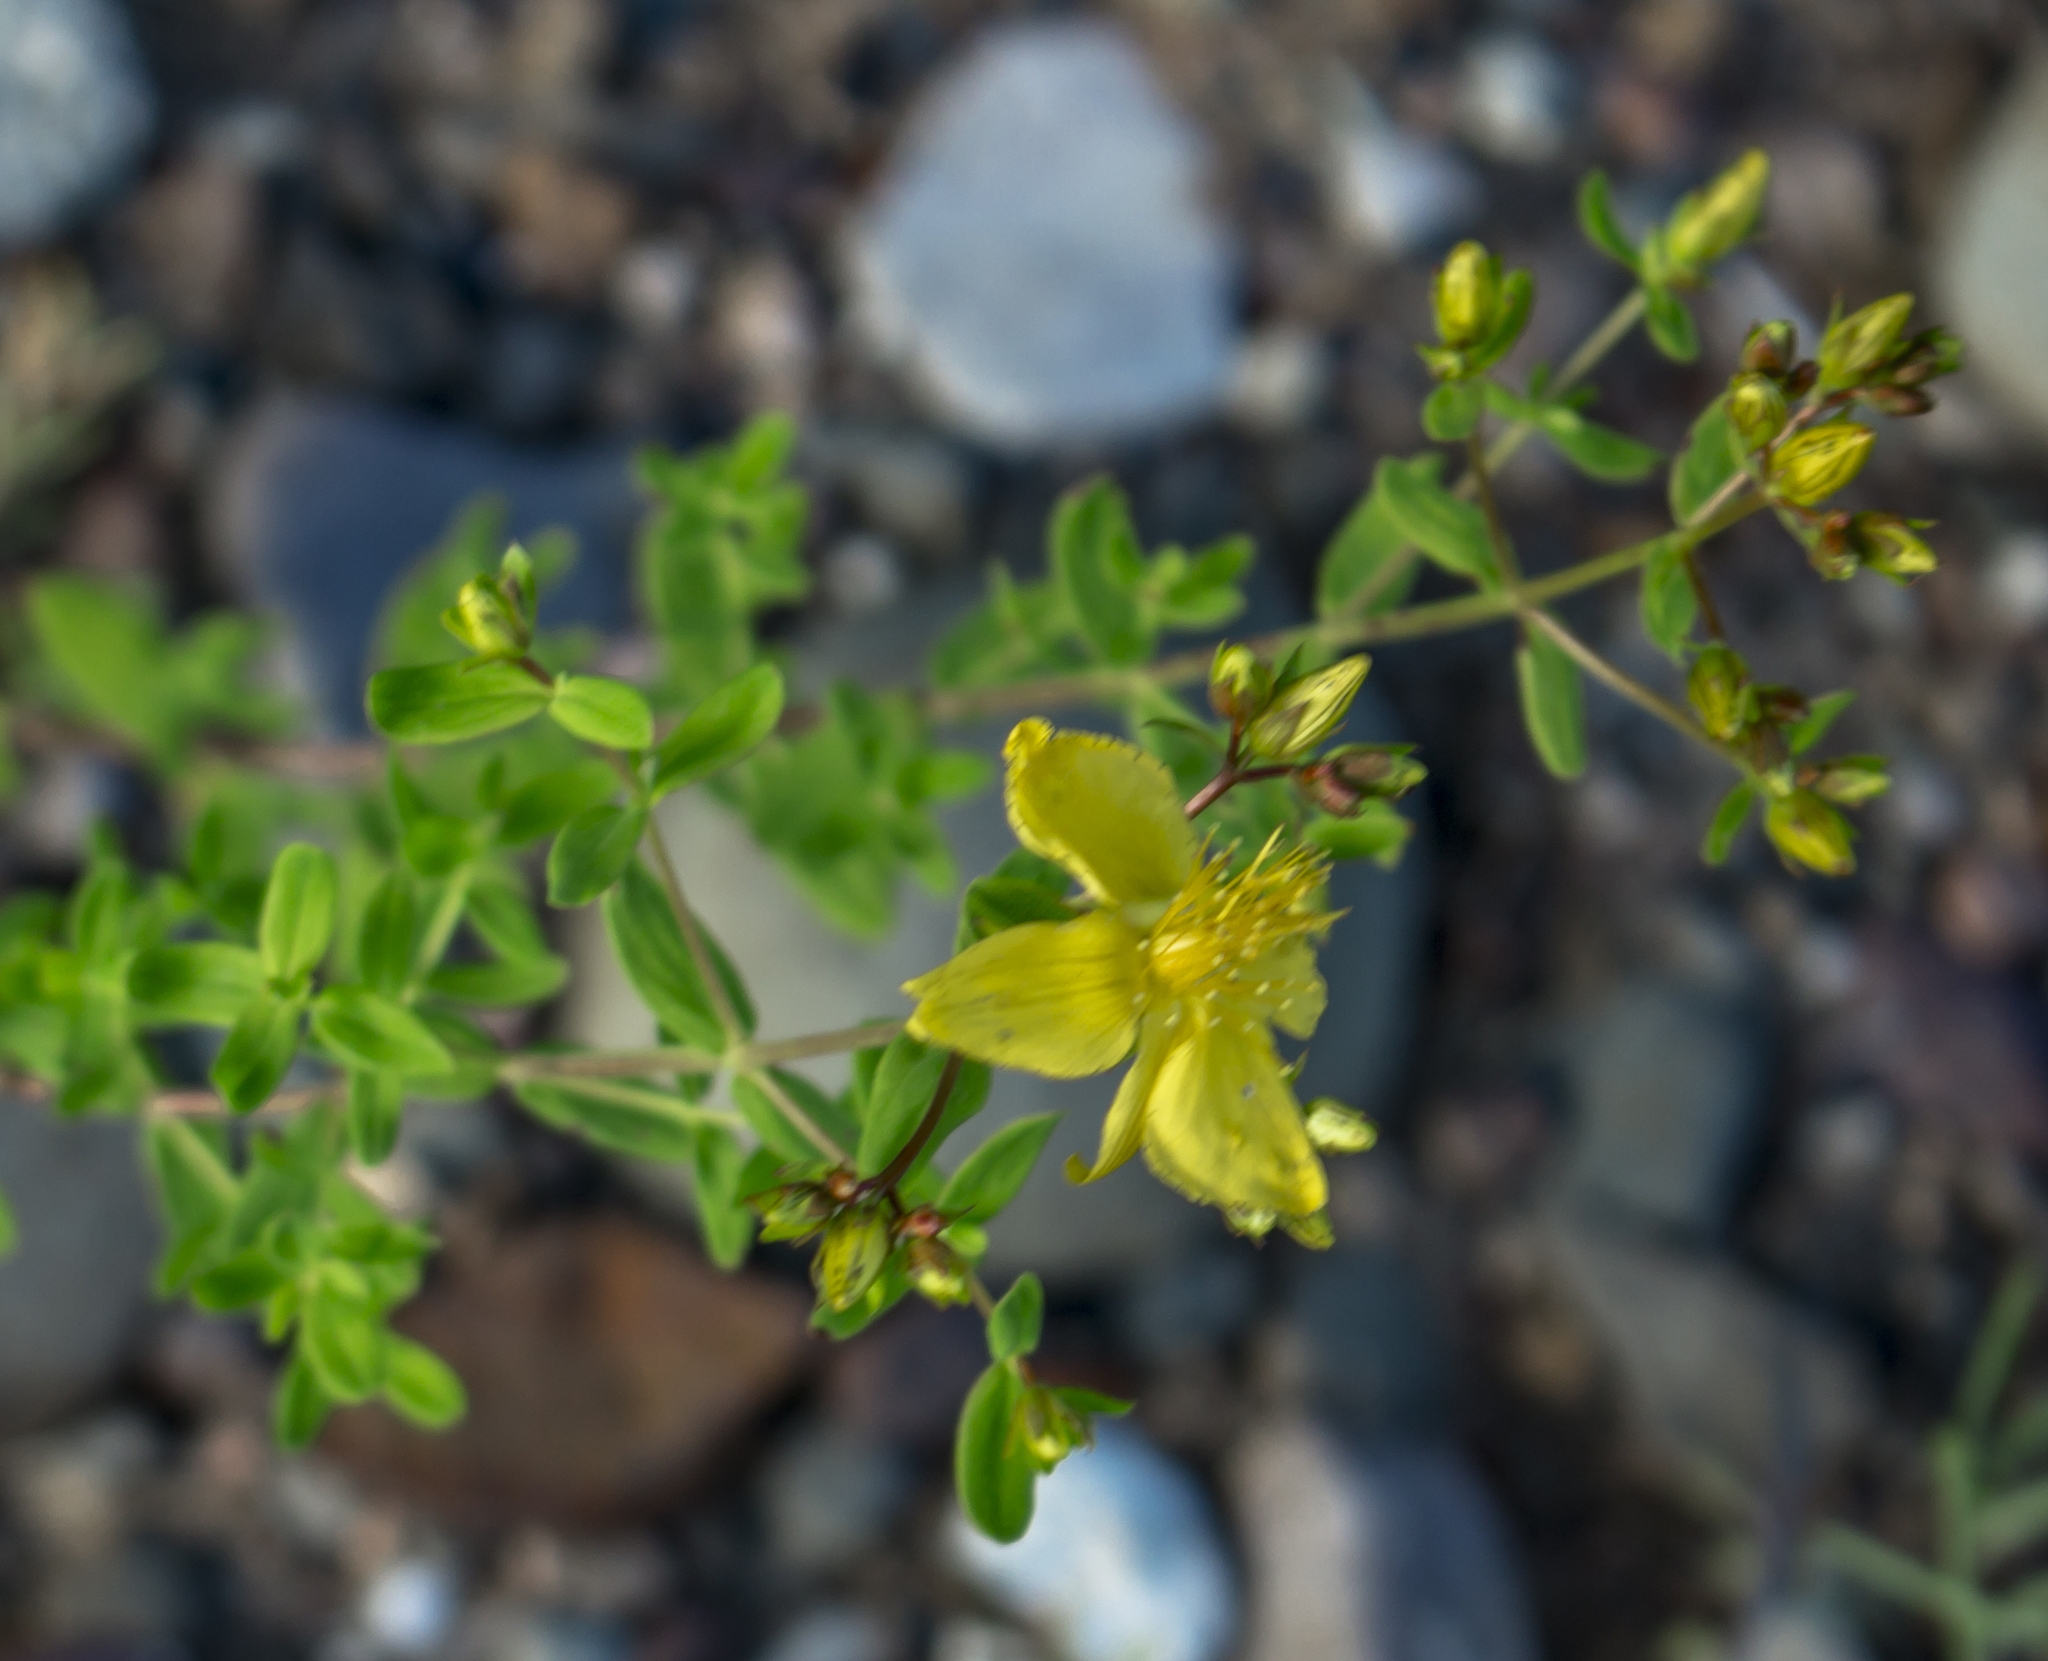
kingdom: Plantae
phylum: Tracheophyta
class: Magnoliopsida
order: Malpighiales
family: Hypericaceae
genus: Hypericum
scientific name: Hypericum perforatum
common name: Common st. johnswort
